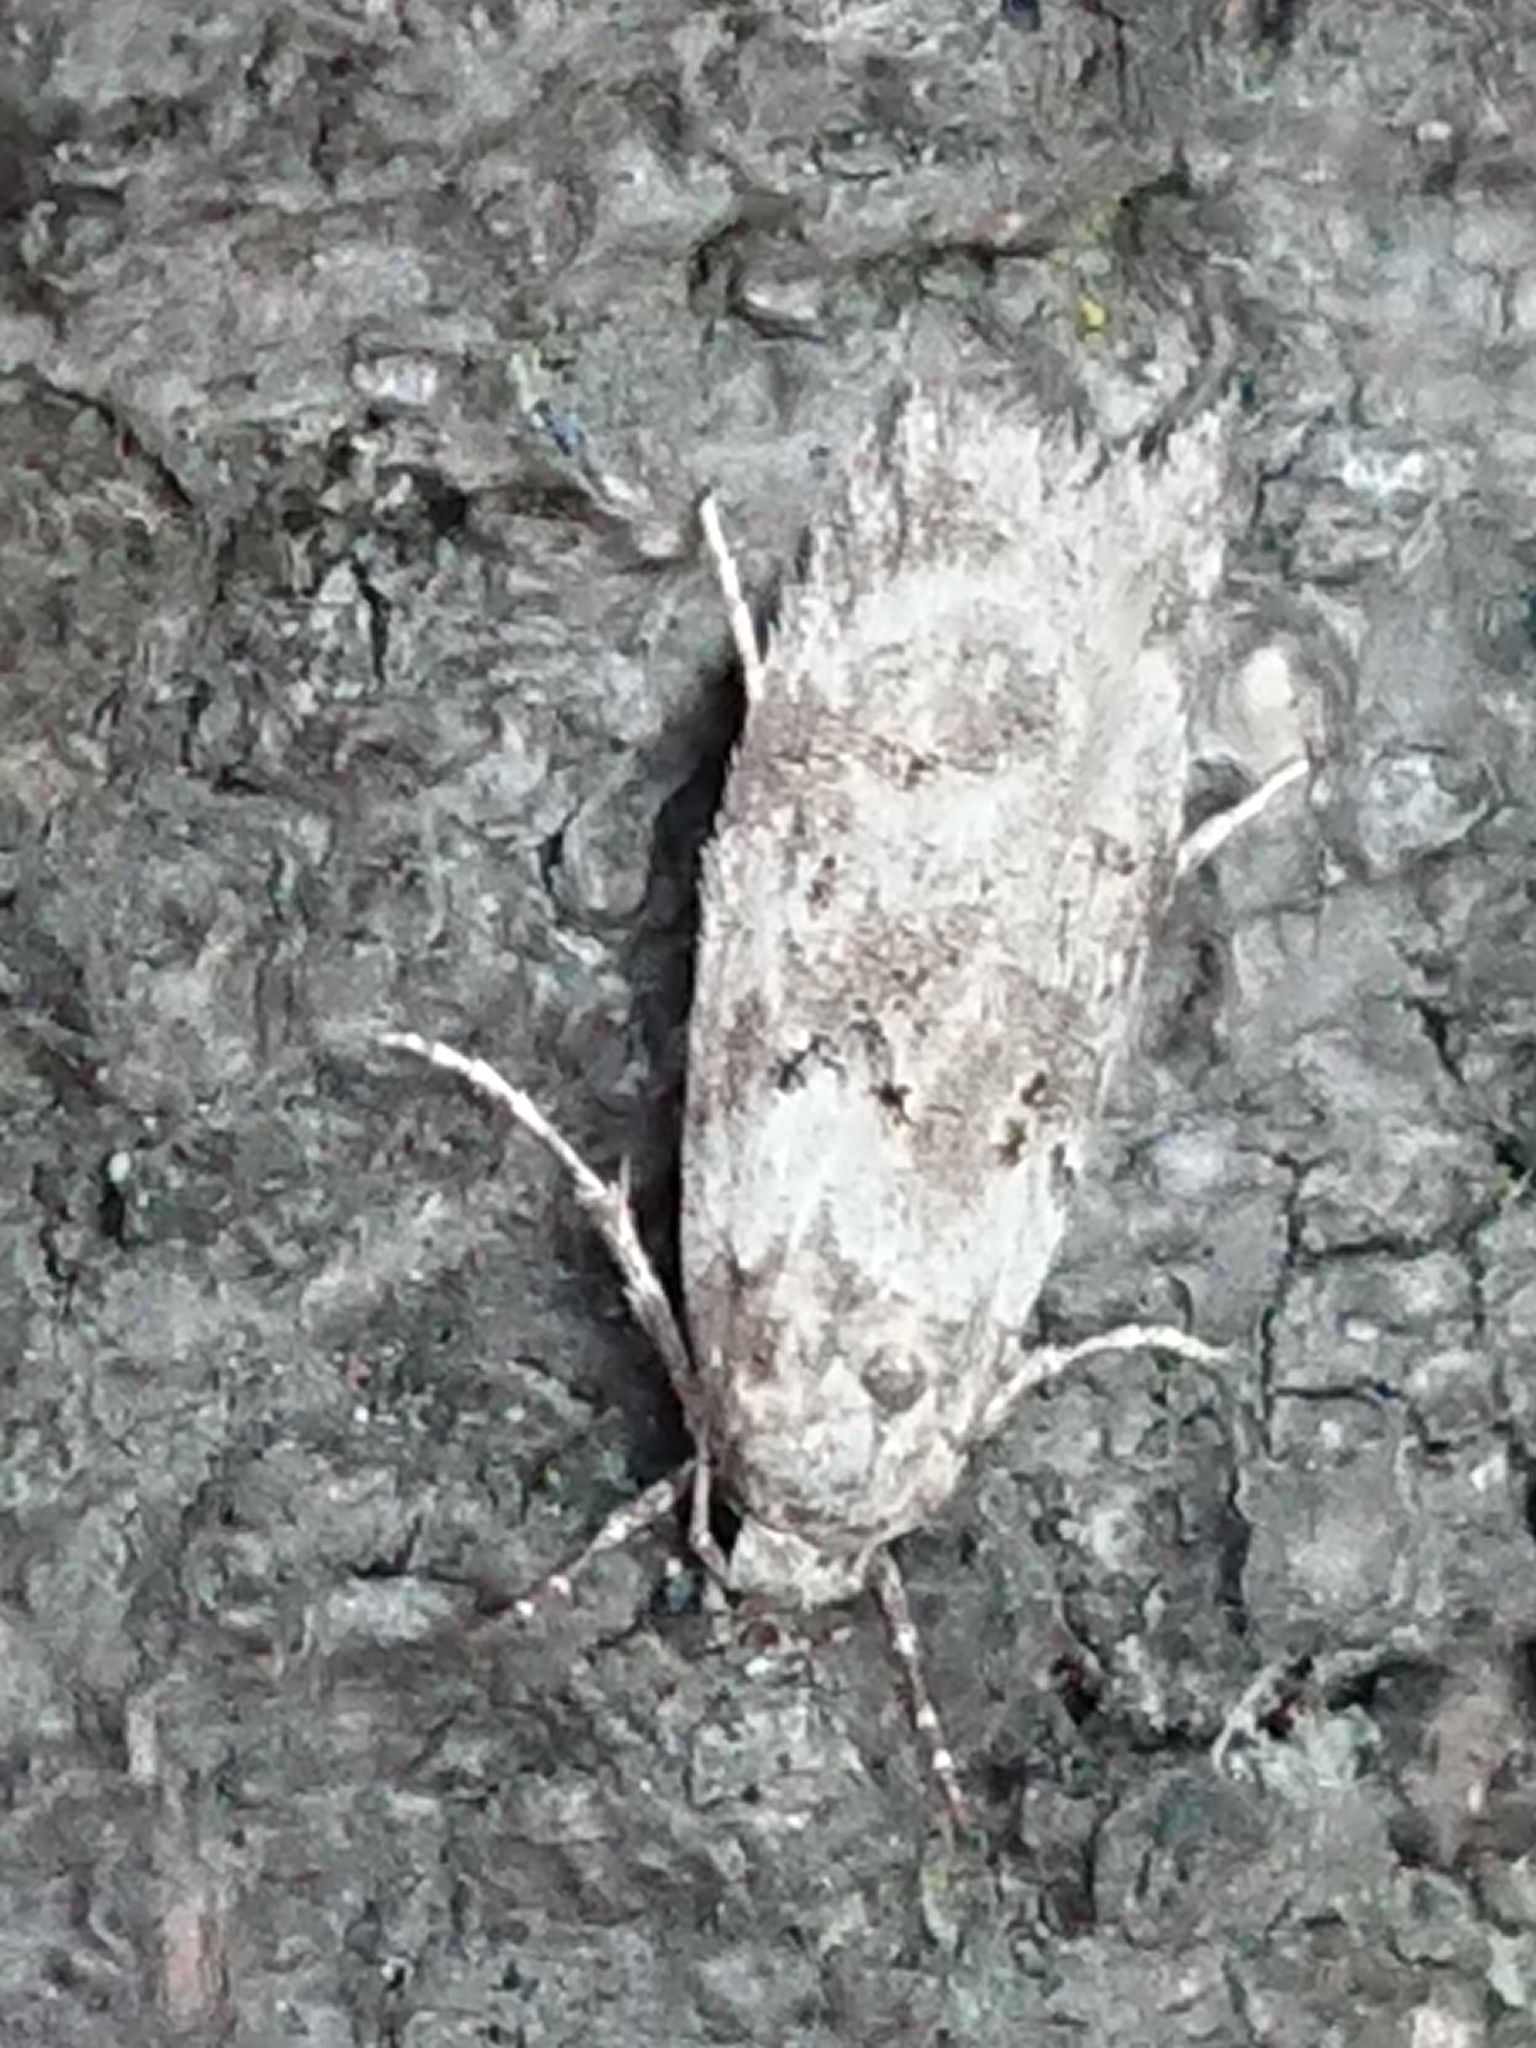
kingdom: Animalia
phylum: Arthropoda
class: Insecta
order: Lepidoptera
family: Oecophoridae
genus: Izatha
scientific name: Izatha convulsella
